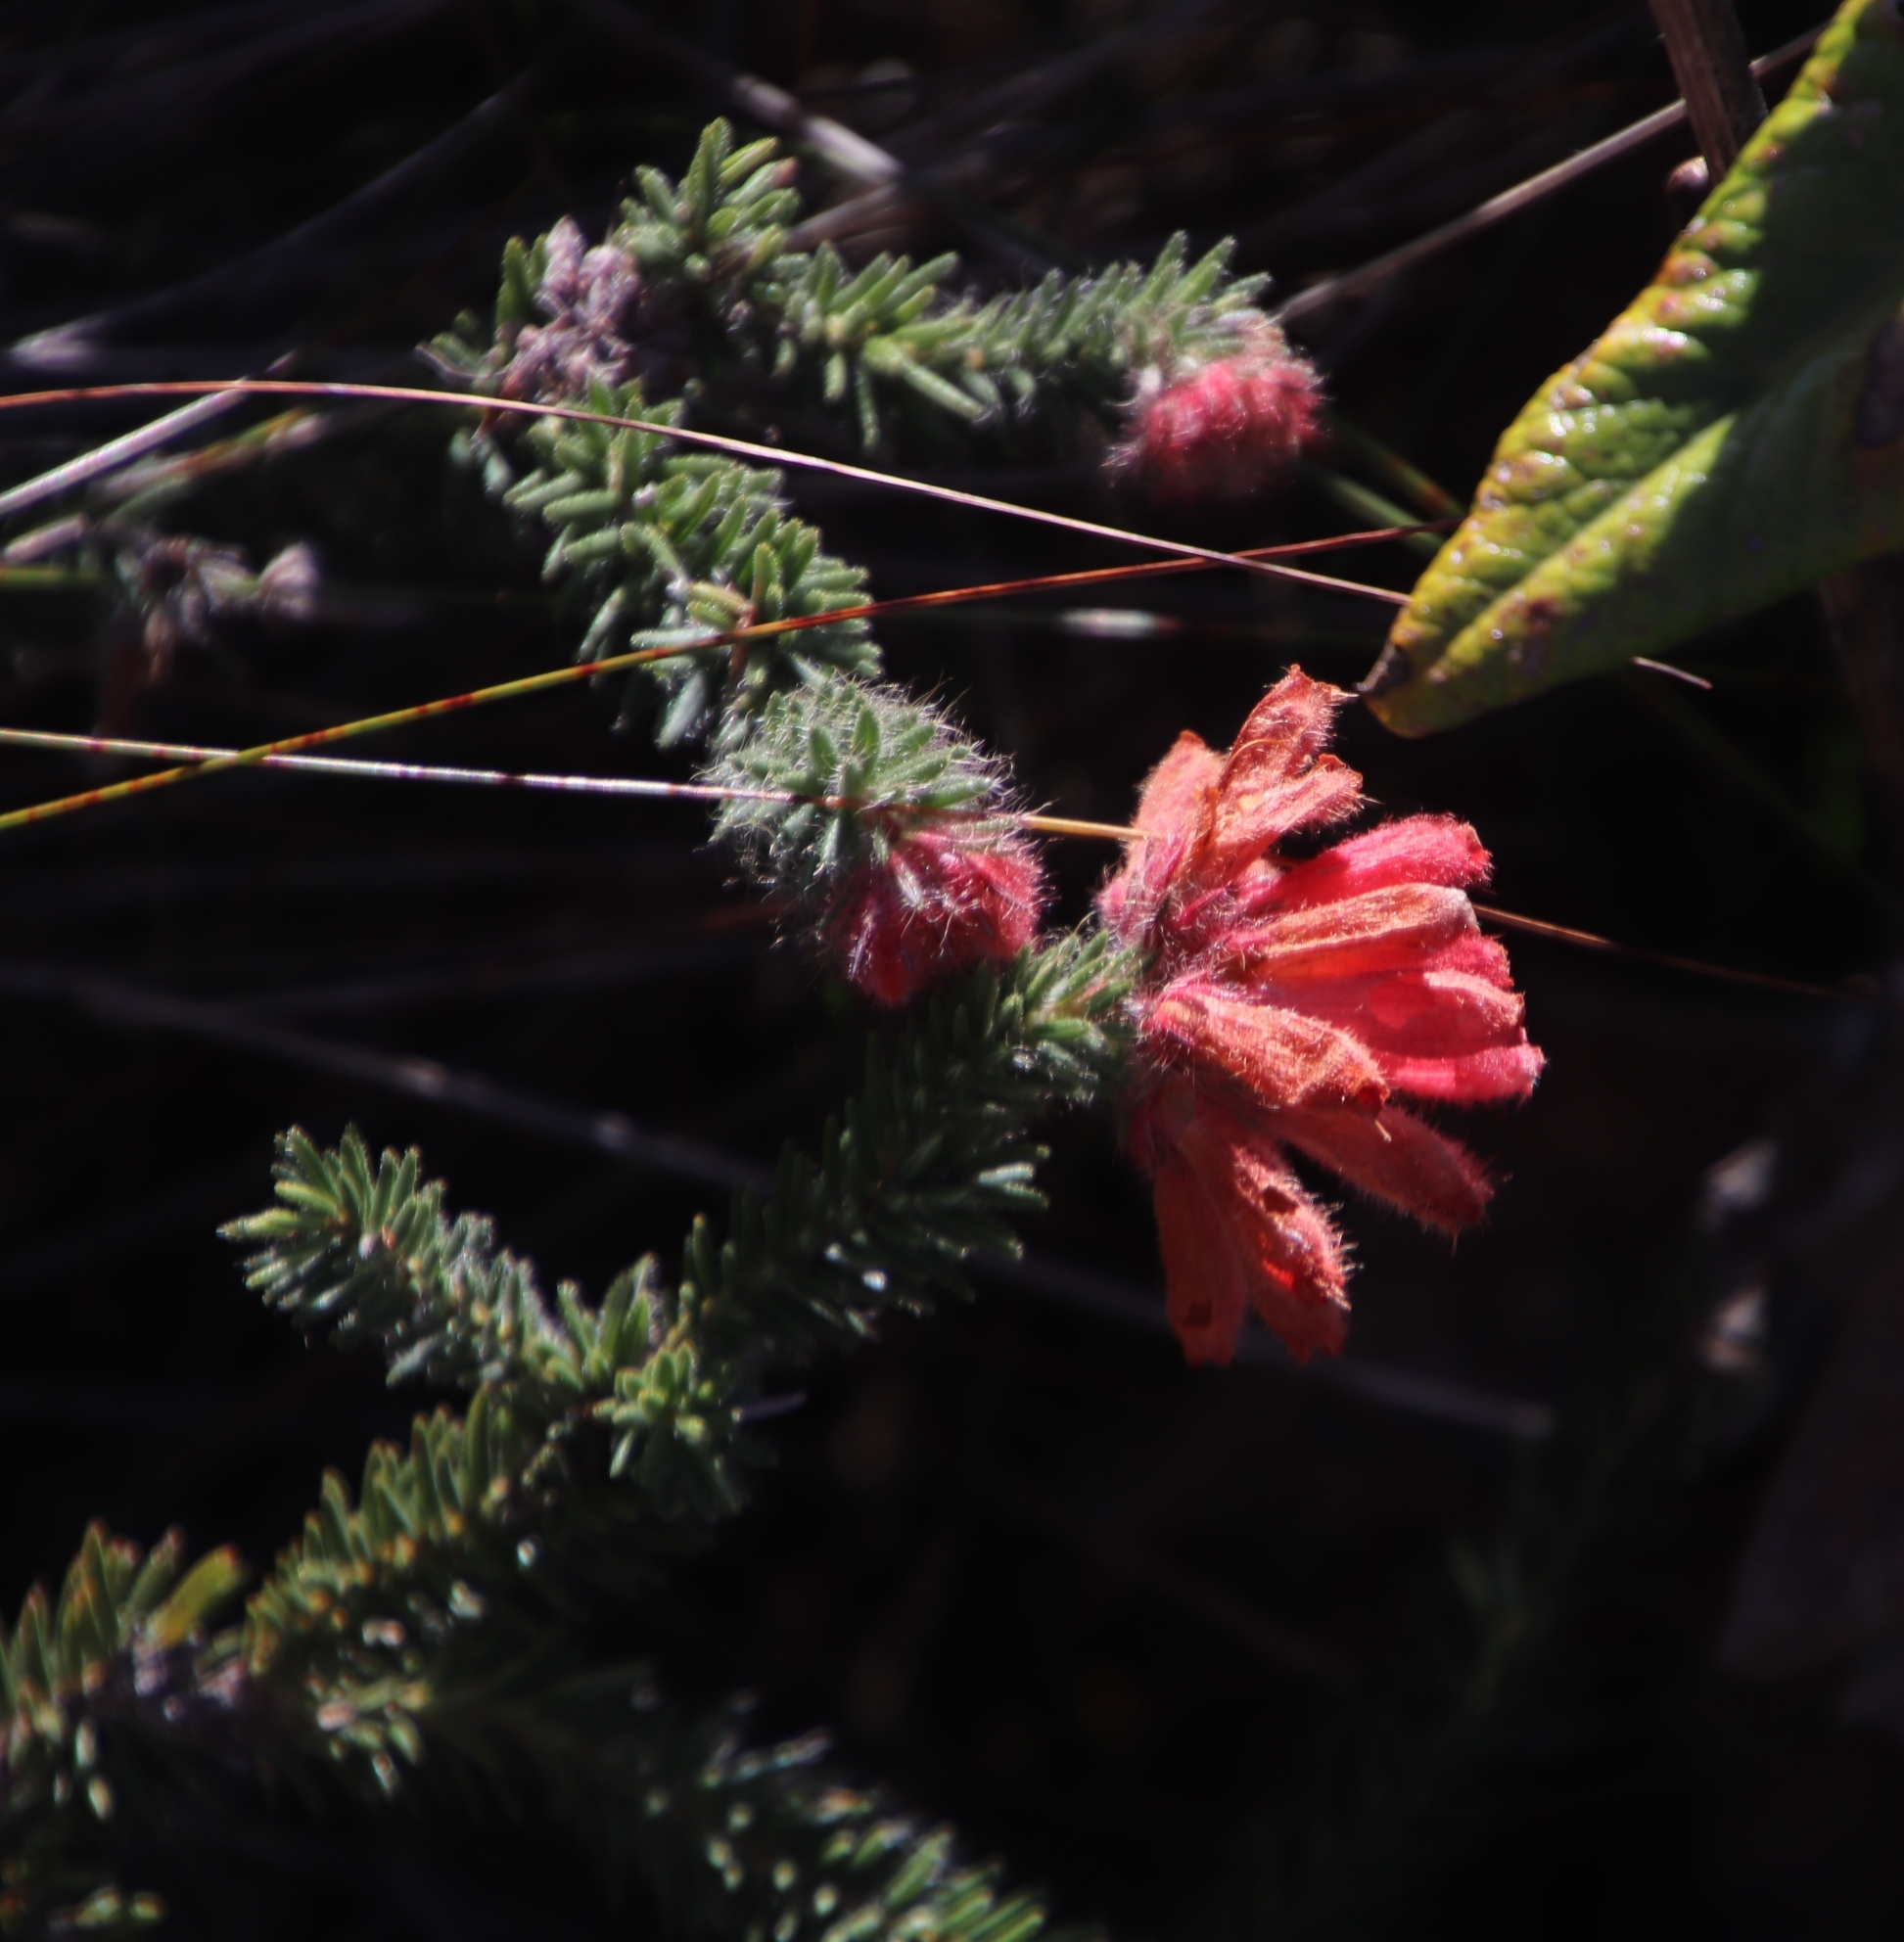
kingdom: Plantae
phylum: Tracheophyta
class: Magnoliopsida
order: Ericales
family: Ericaceae
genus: Erica
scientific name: Erica cerinthoides
